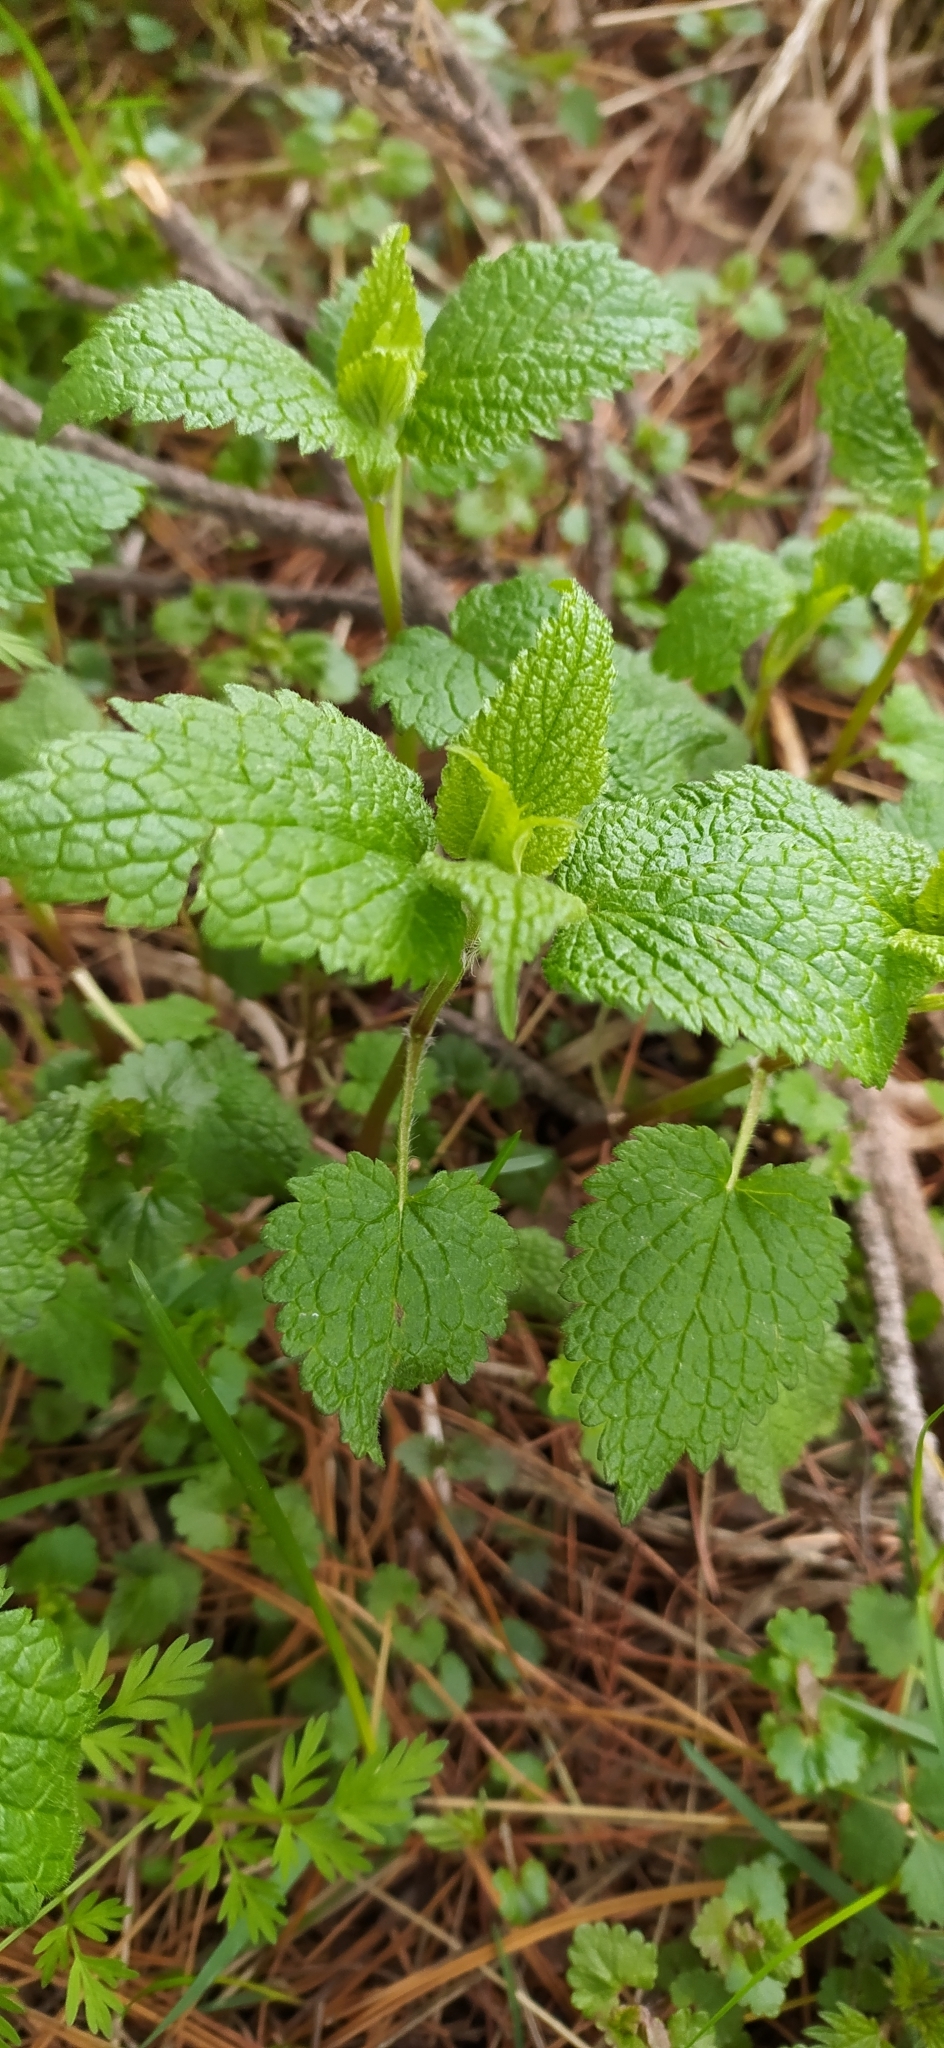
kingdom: Plantae
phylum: Tracheophyta
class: Magnoliopsida
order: Lamiales
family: Lamiaceae
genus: Lamium
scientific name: Lamium album
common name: White dead-nettle
